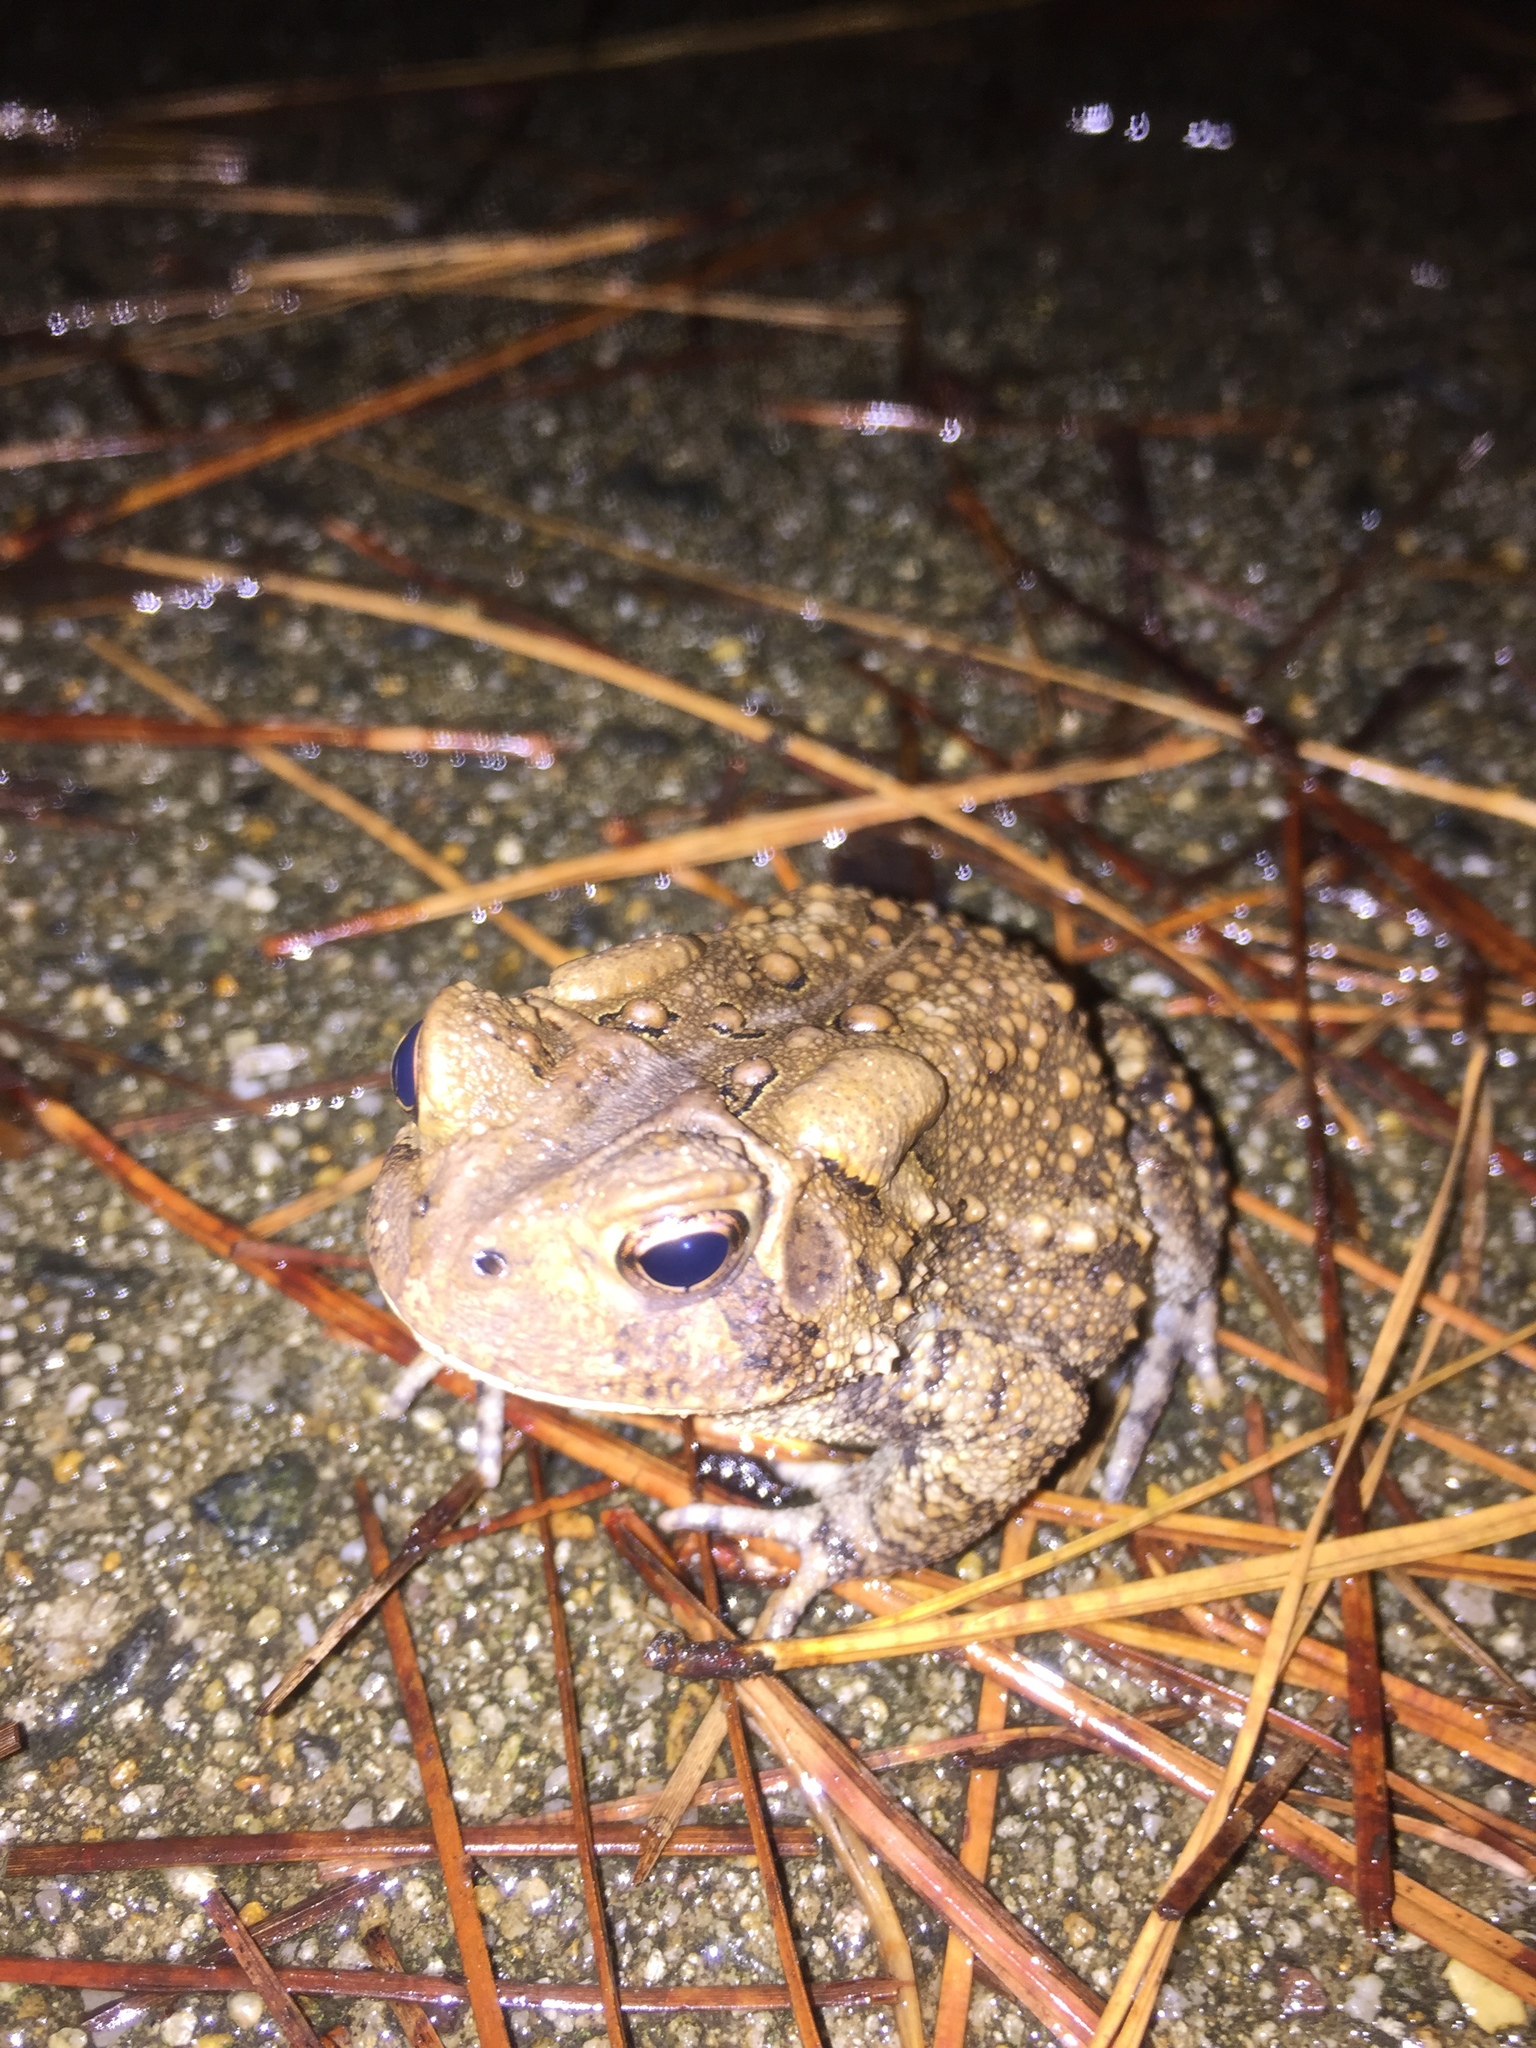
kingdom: Animalia
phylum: Chordata
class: Amphibia
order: Anura
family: Bufonidae
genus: Anaxyrus
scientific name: Anaxyrus americanus
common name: American toad
